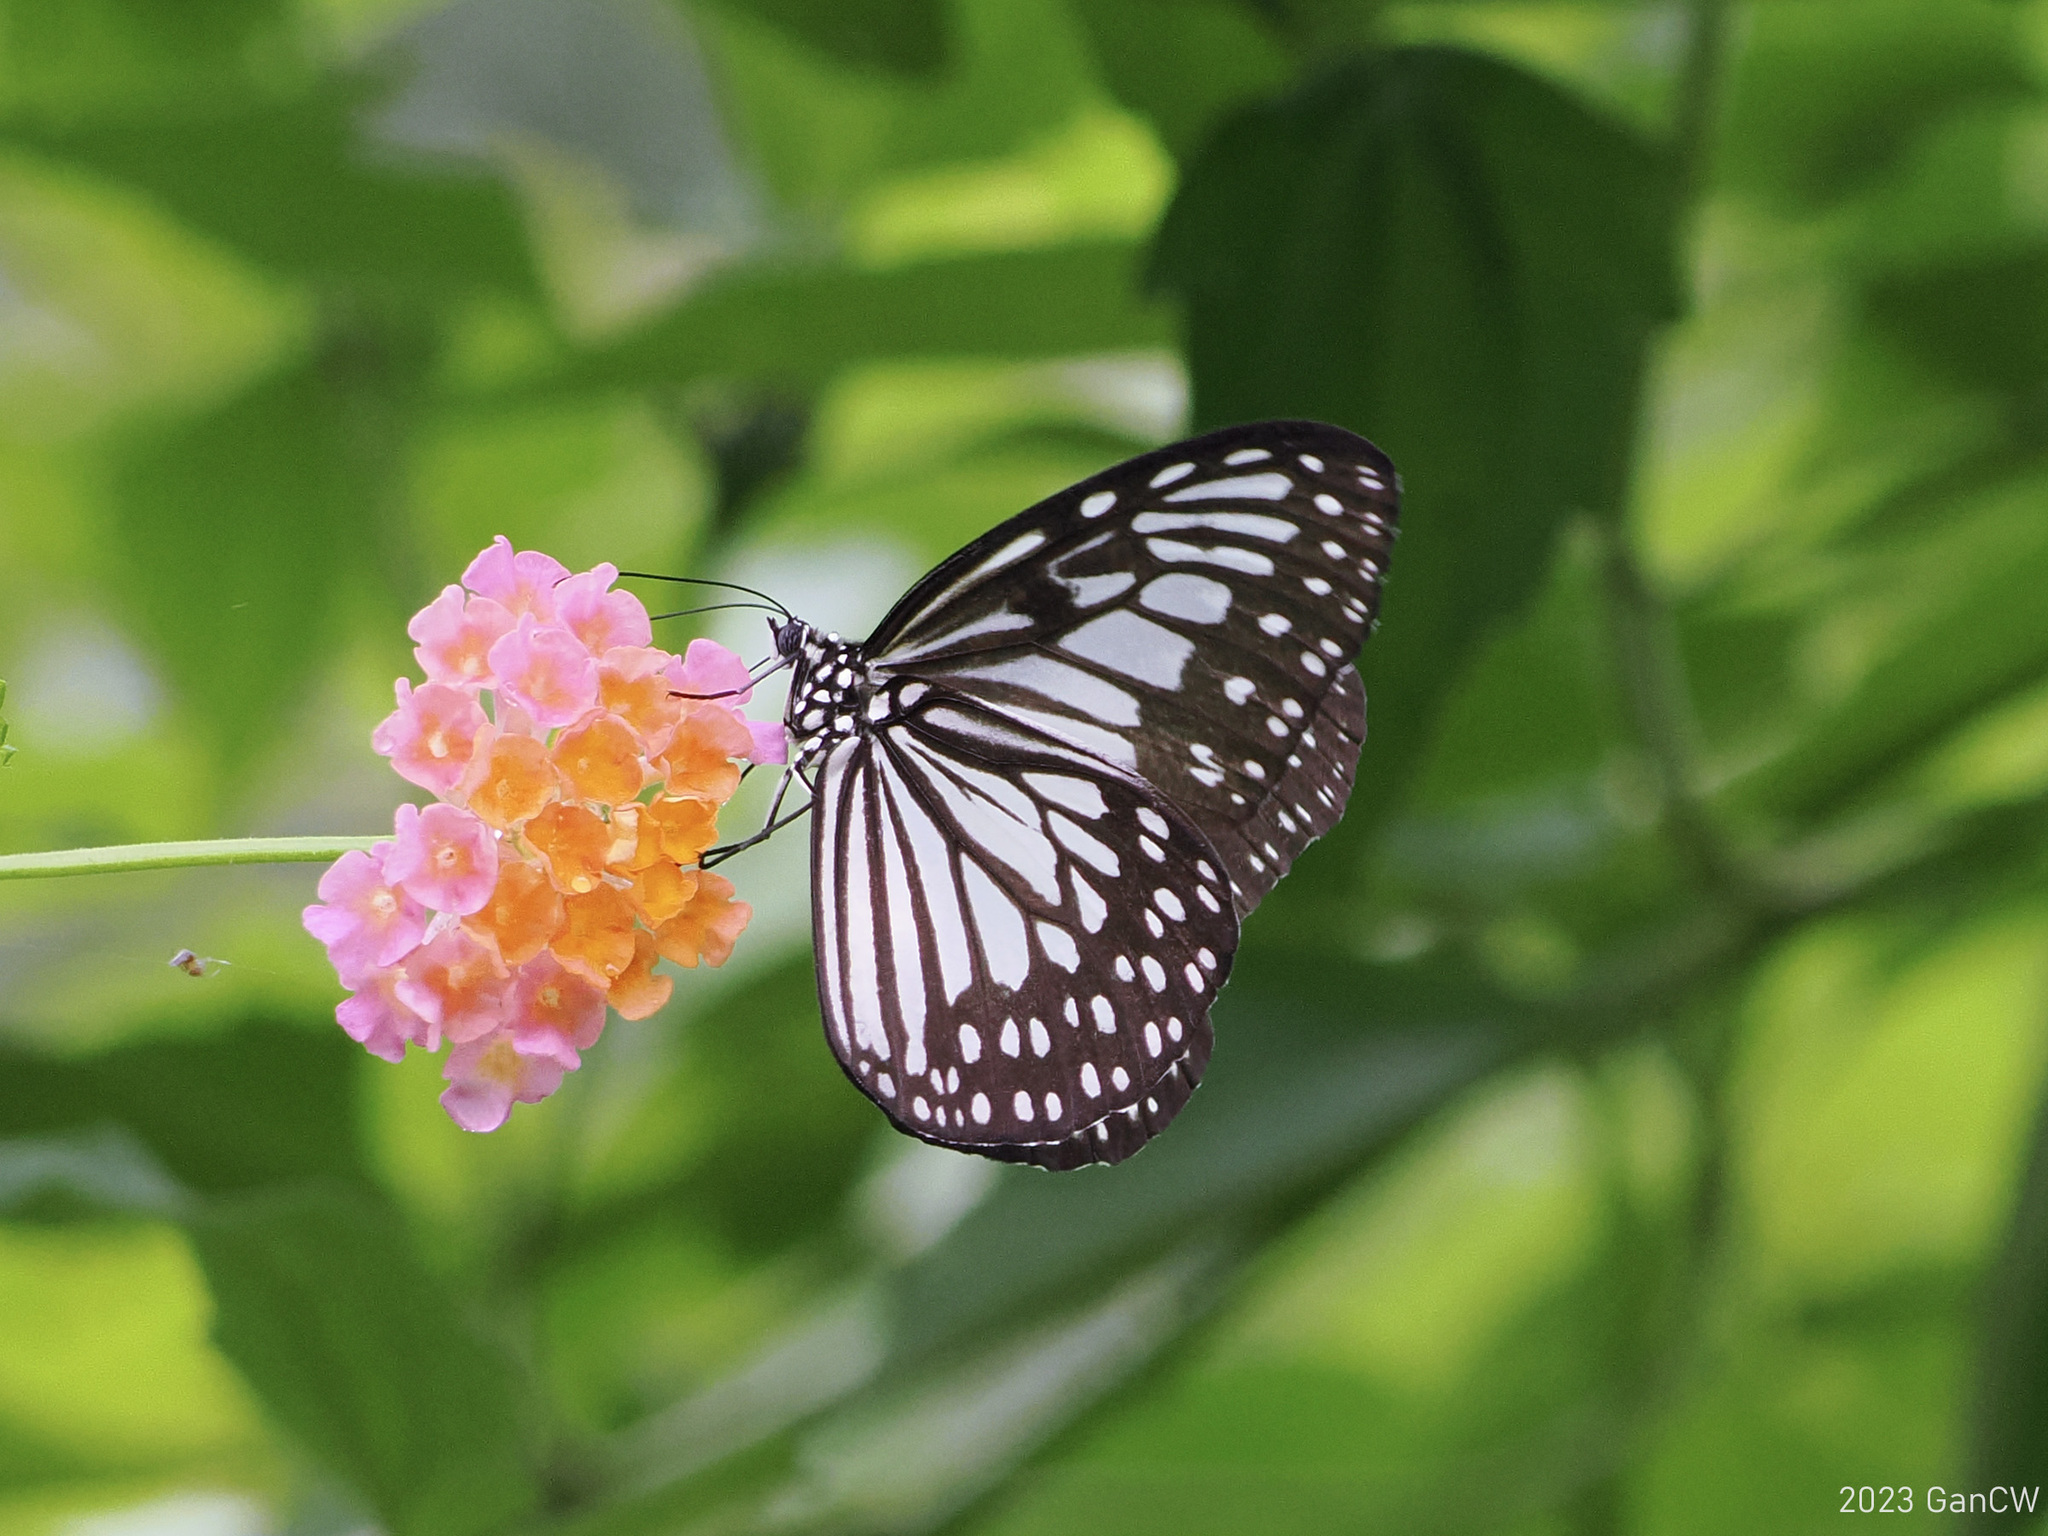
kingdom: Animalia
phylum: Arthropoda
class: Insecta
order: Lepidoptera
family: Nymphalidae
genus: Ideopsis
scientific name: Ideopsis juventa
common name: Grey glassy tiger
